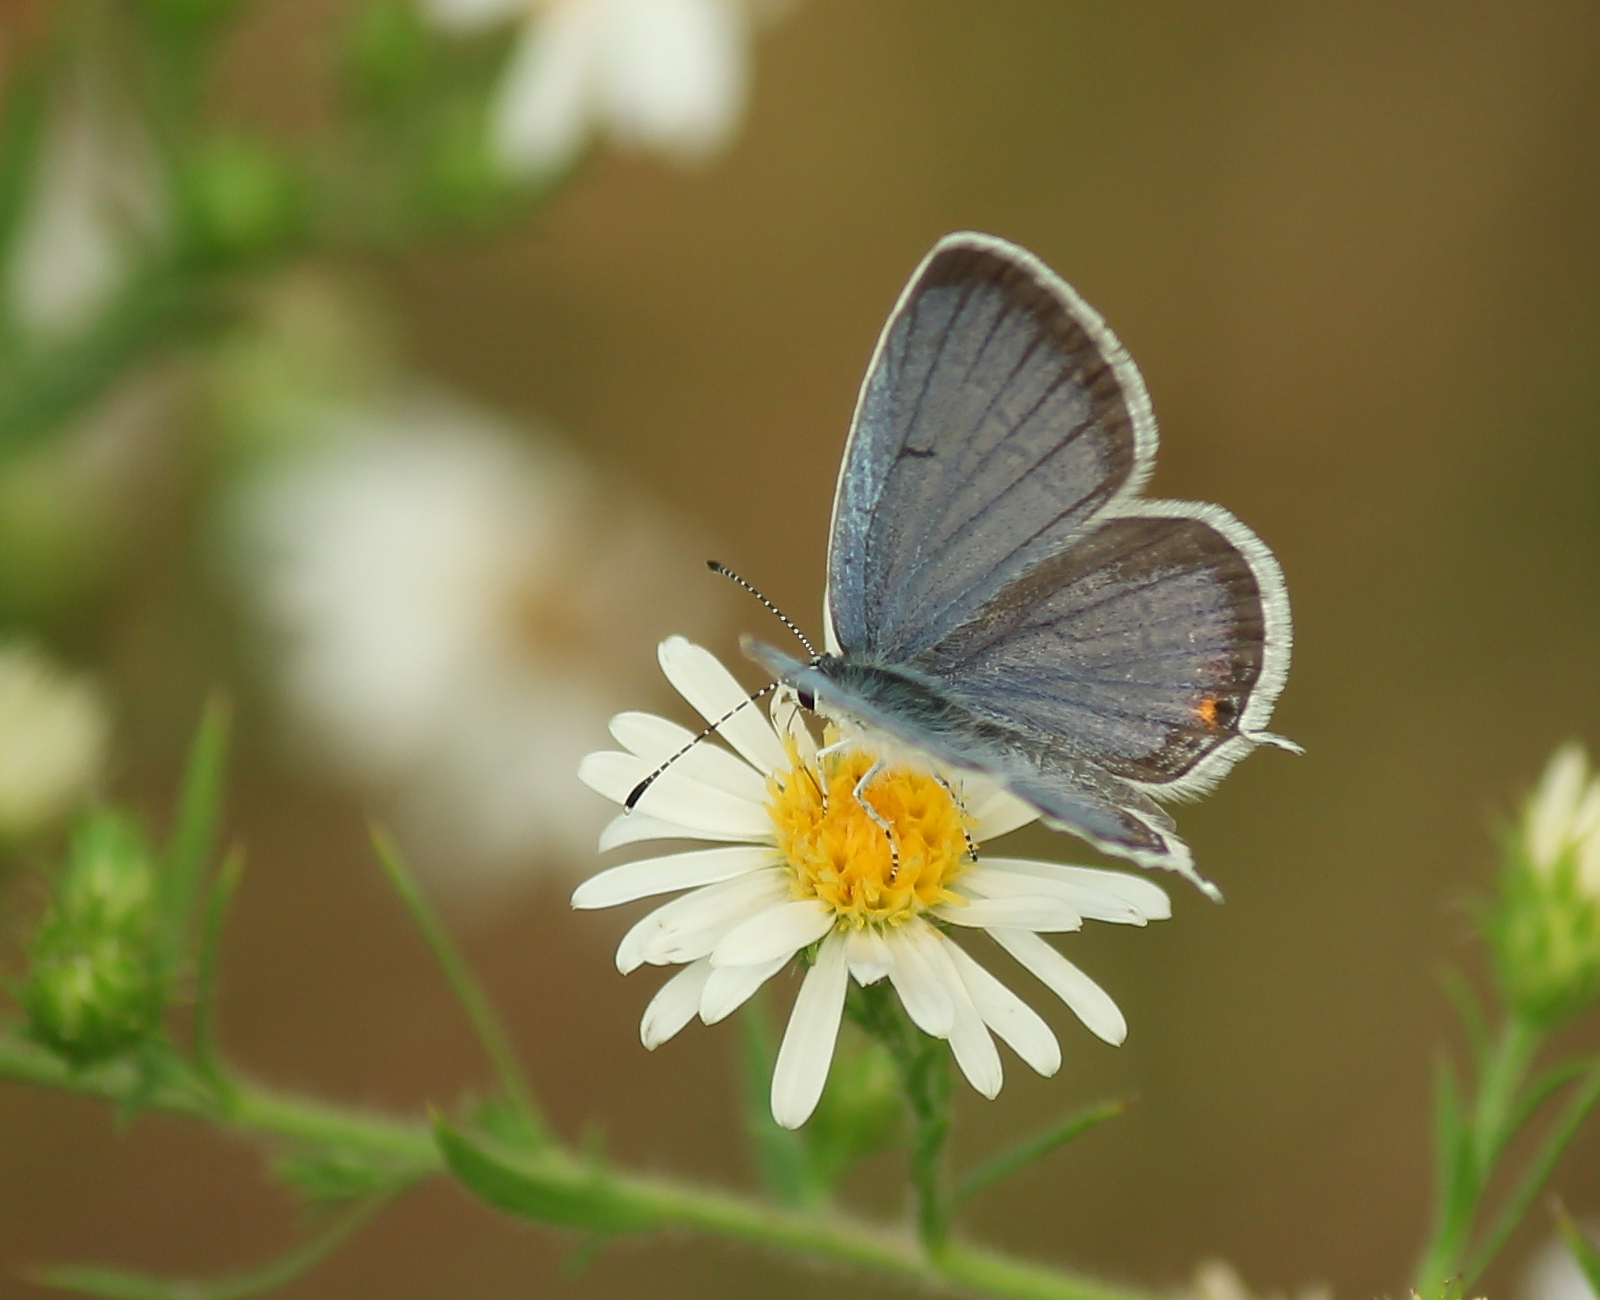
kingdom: Animalia
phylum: Arthropoda
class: Insecta
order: Lepidoptera
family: Lycaenidae
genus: Elkalyce
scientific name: Elkalyce comyntas
